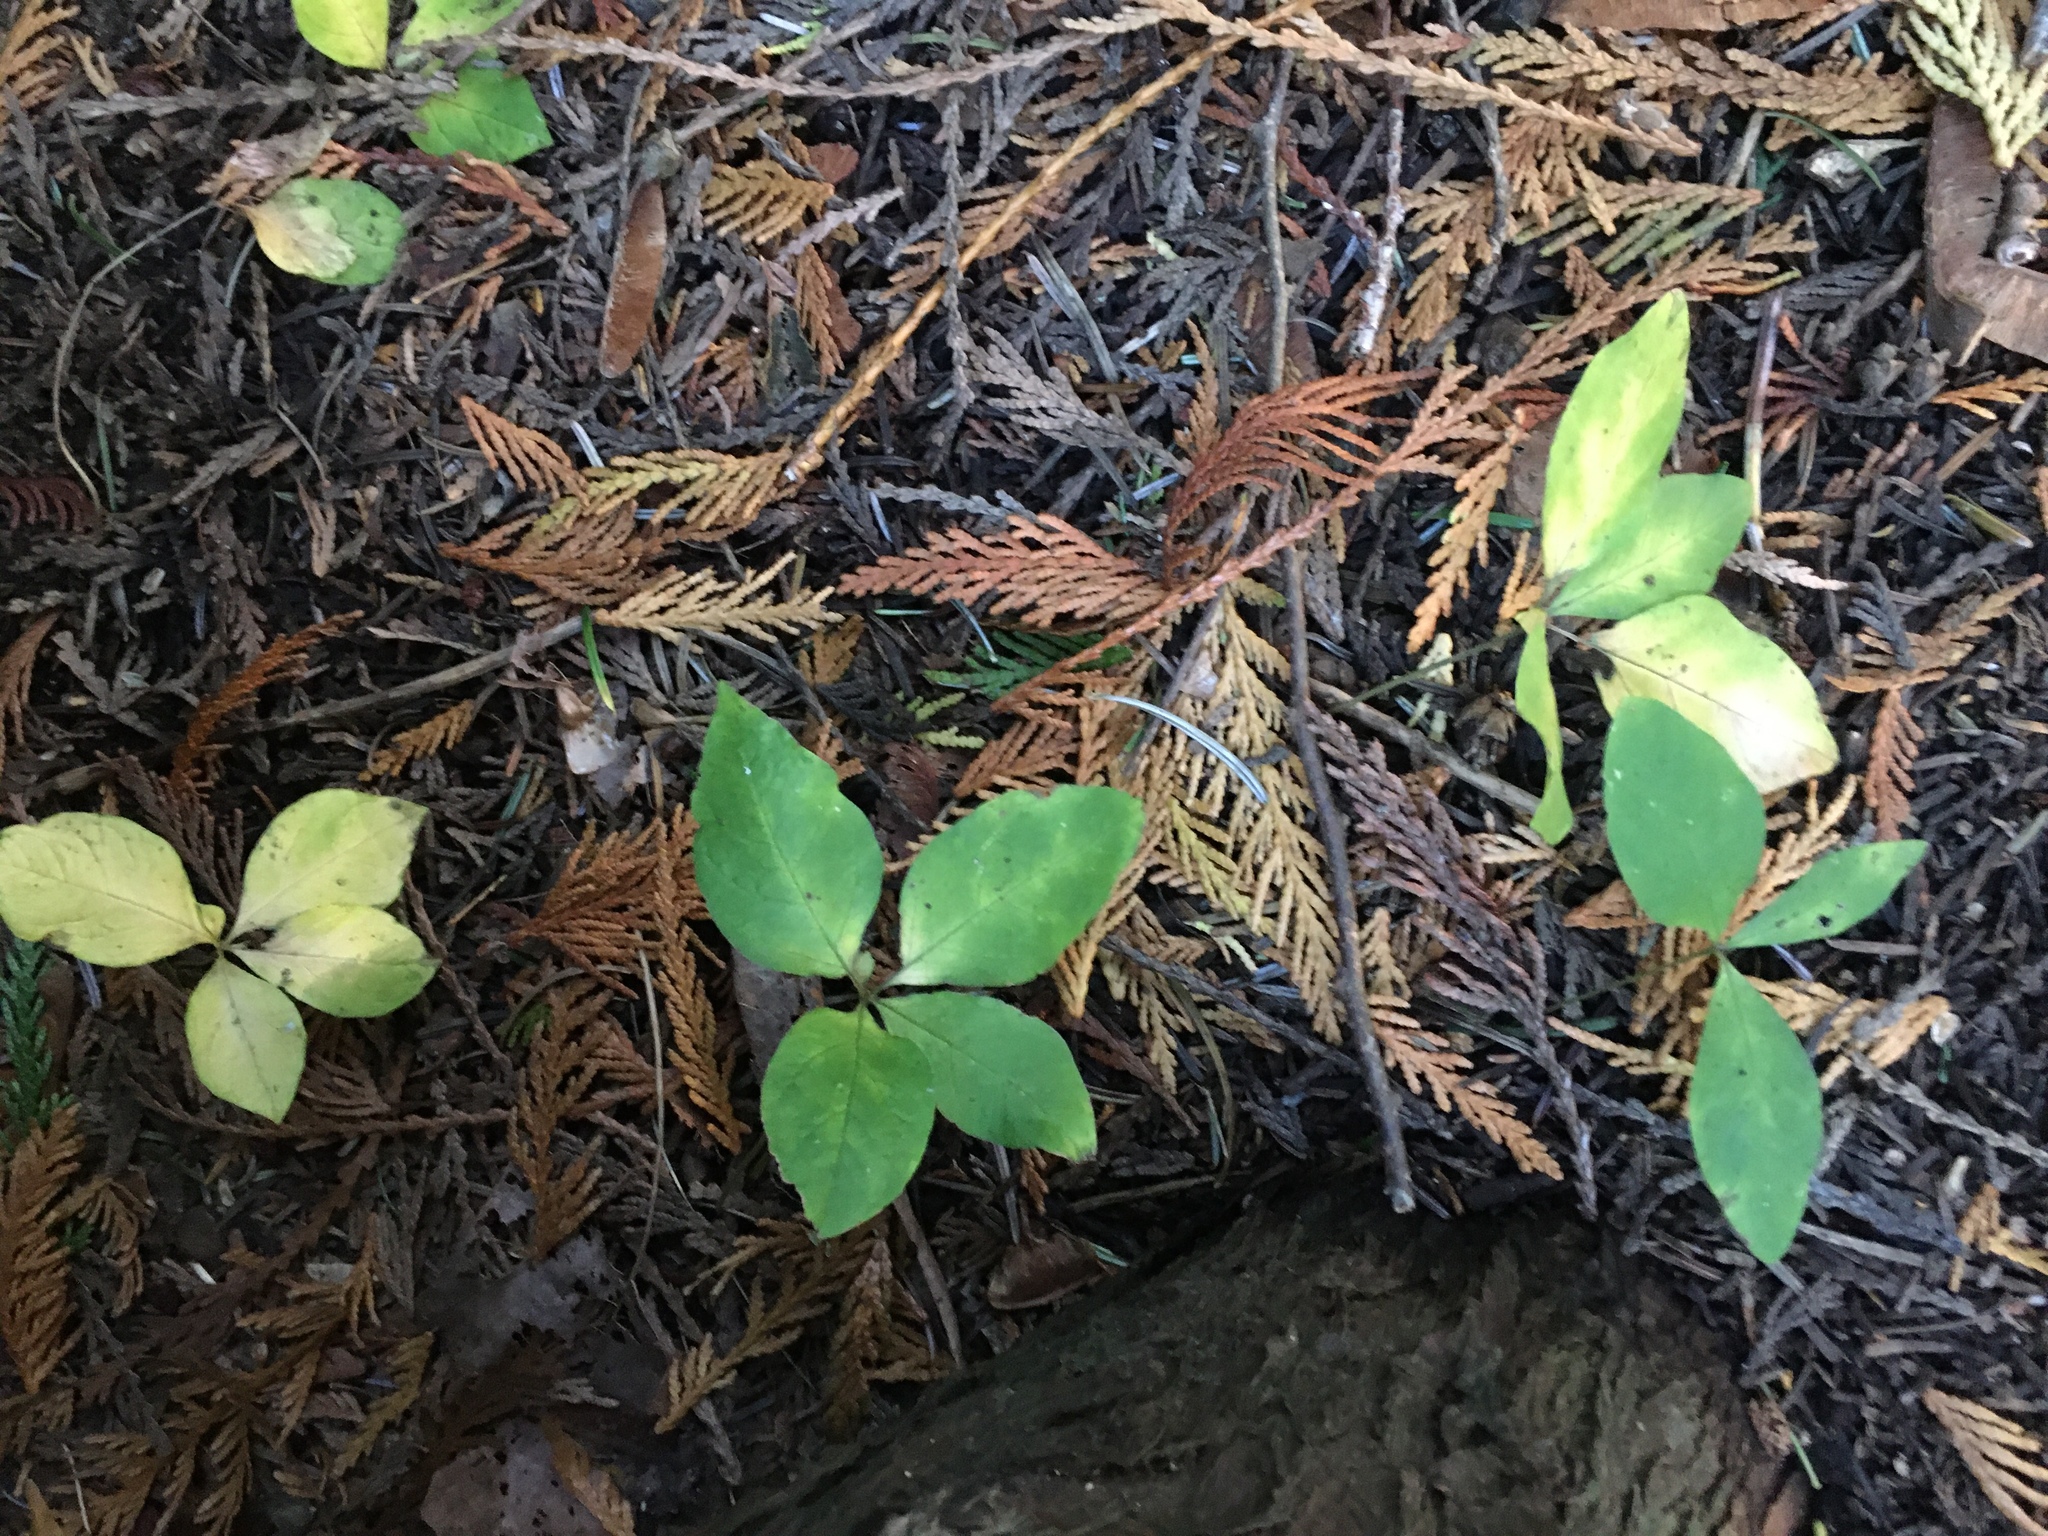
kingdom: Plantae
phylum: Tracheophyta
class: Magnoliopsida
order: Ericales
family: Primulaceae
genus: Lysimachia
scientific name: Lysimachia latifolia
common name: Pacific starflower
